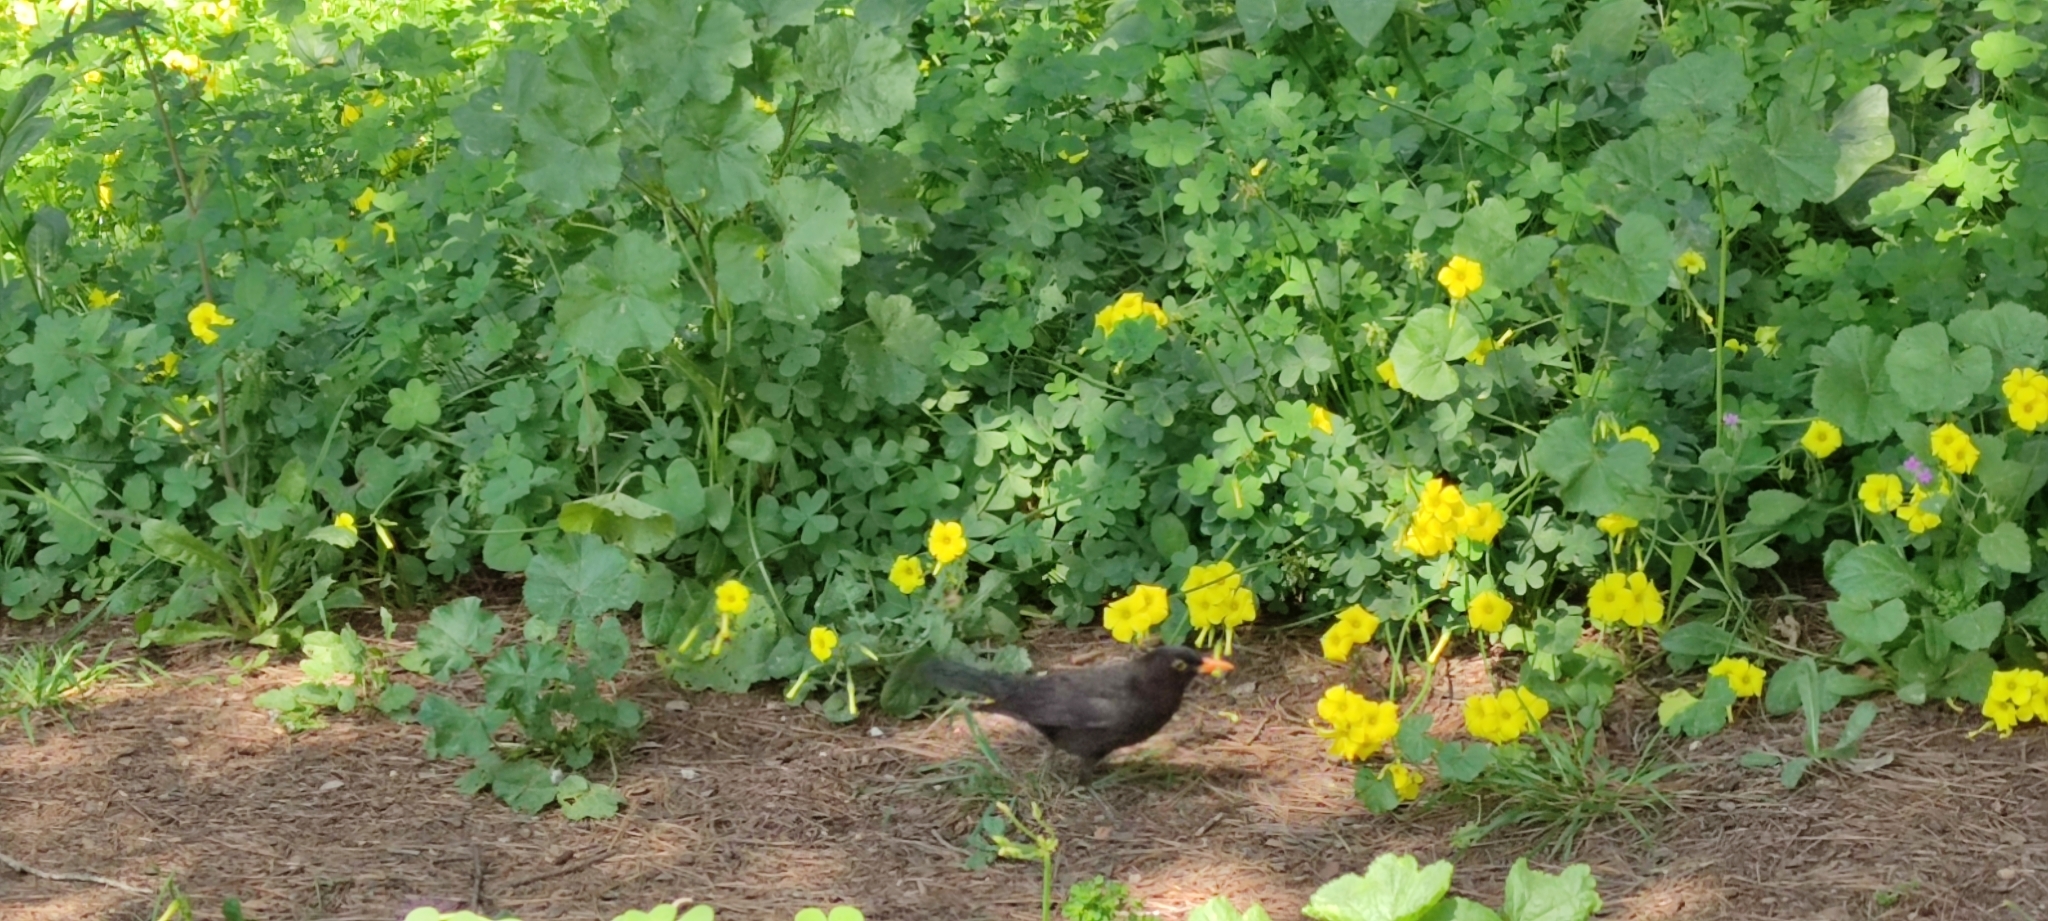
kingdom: Animalia
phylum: Chordata
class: Aves
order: Passeriformes
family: Turdidae
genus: Turdus
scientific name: Turdus merula
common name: Common blackbird
